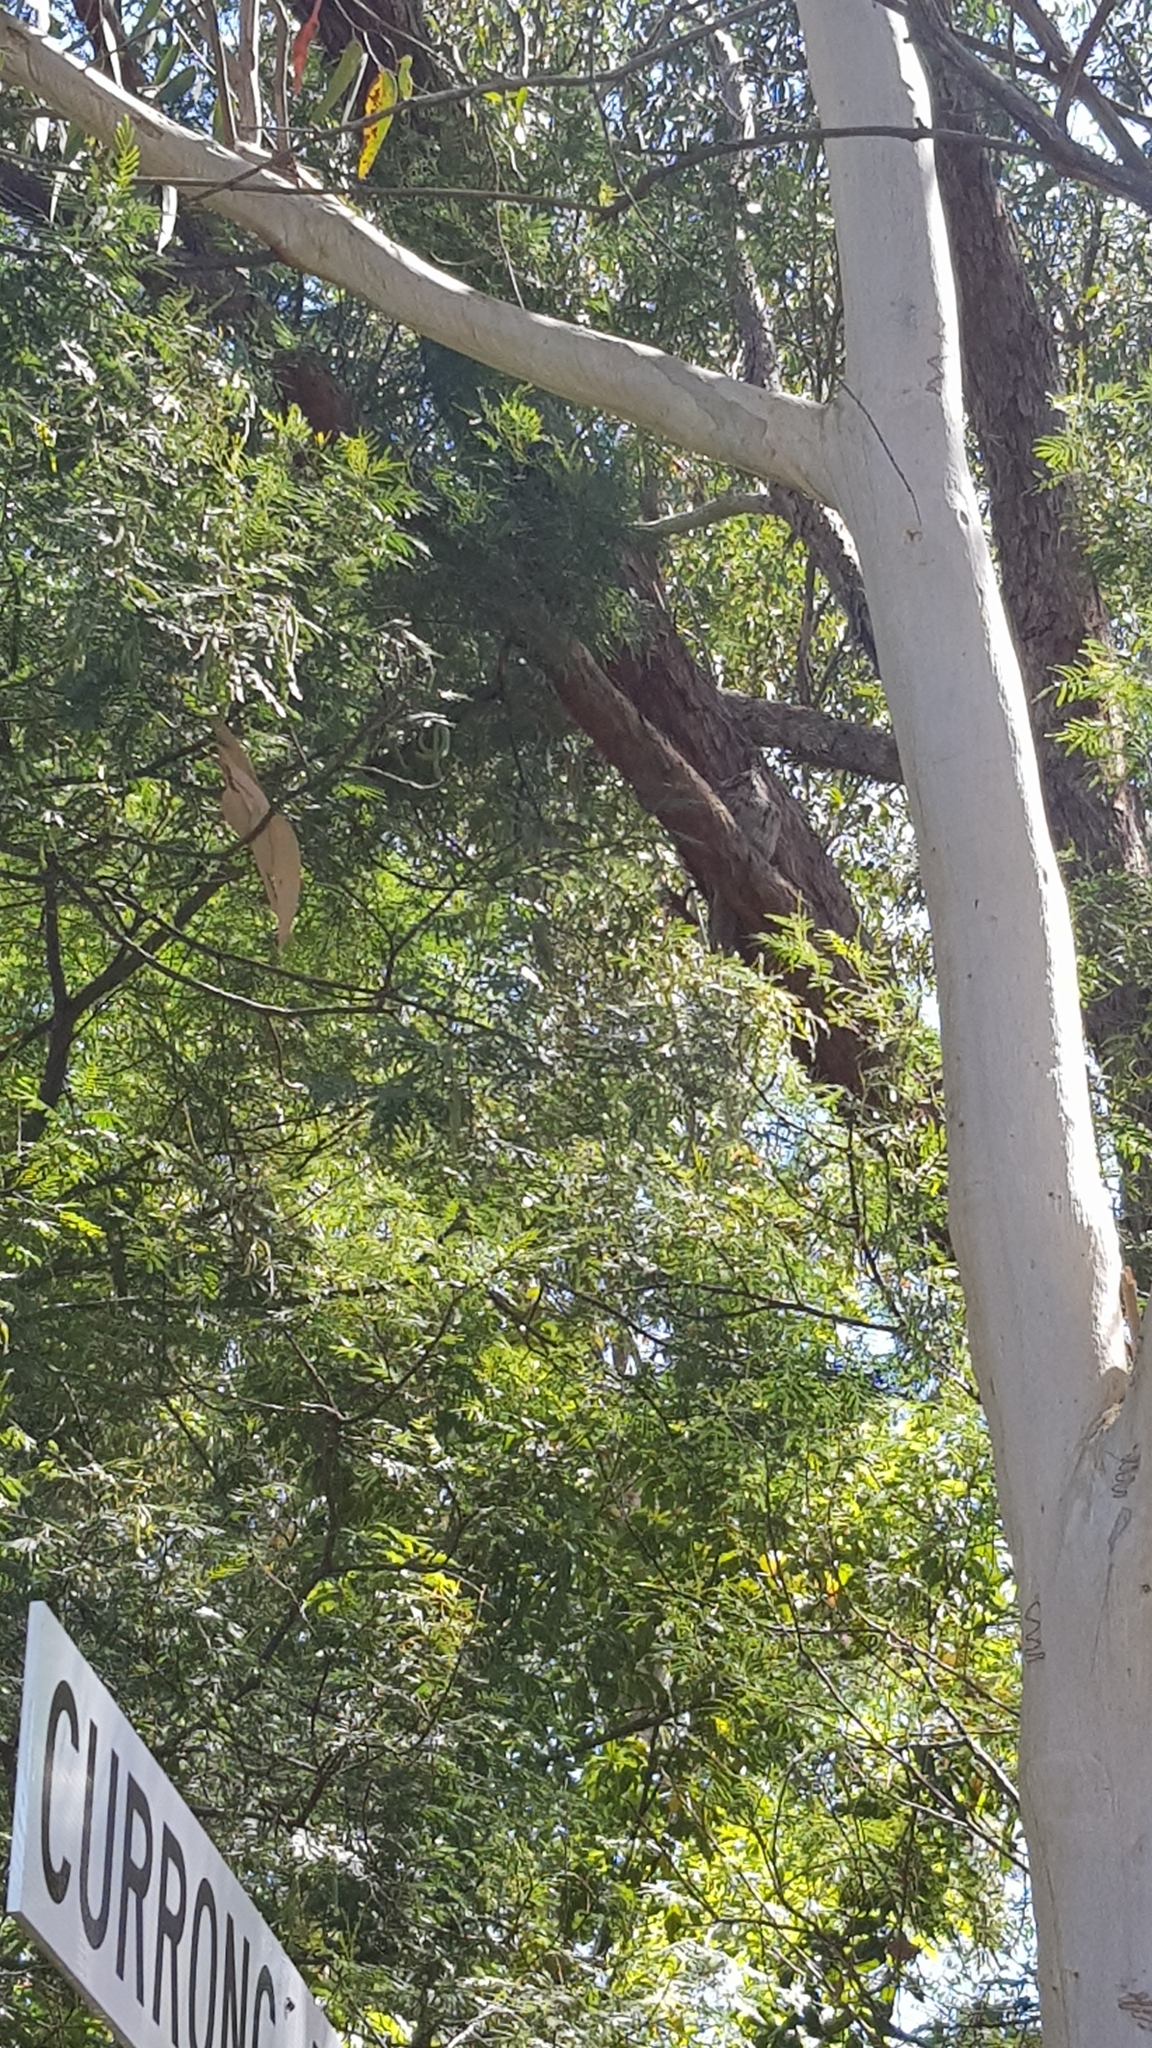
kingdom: Animalia
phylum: Chordata
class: Aves
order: Caprimulgiformes
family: Podargidae
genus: Podargus
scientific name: Podargus strigoides
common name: Tawny frogmouth
